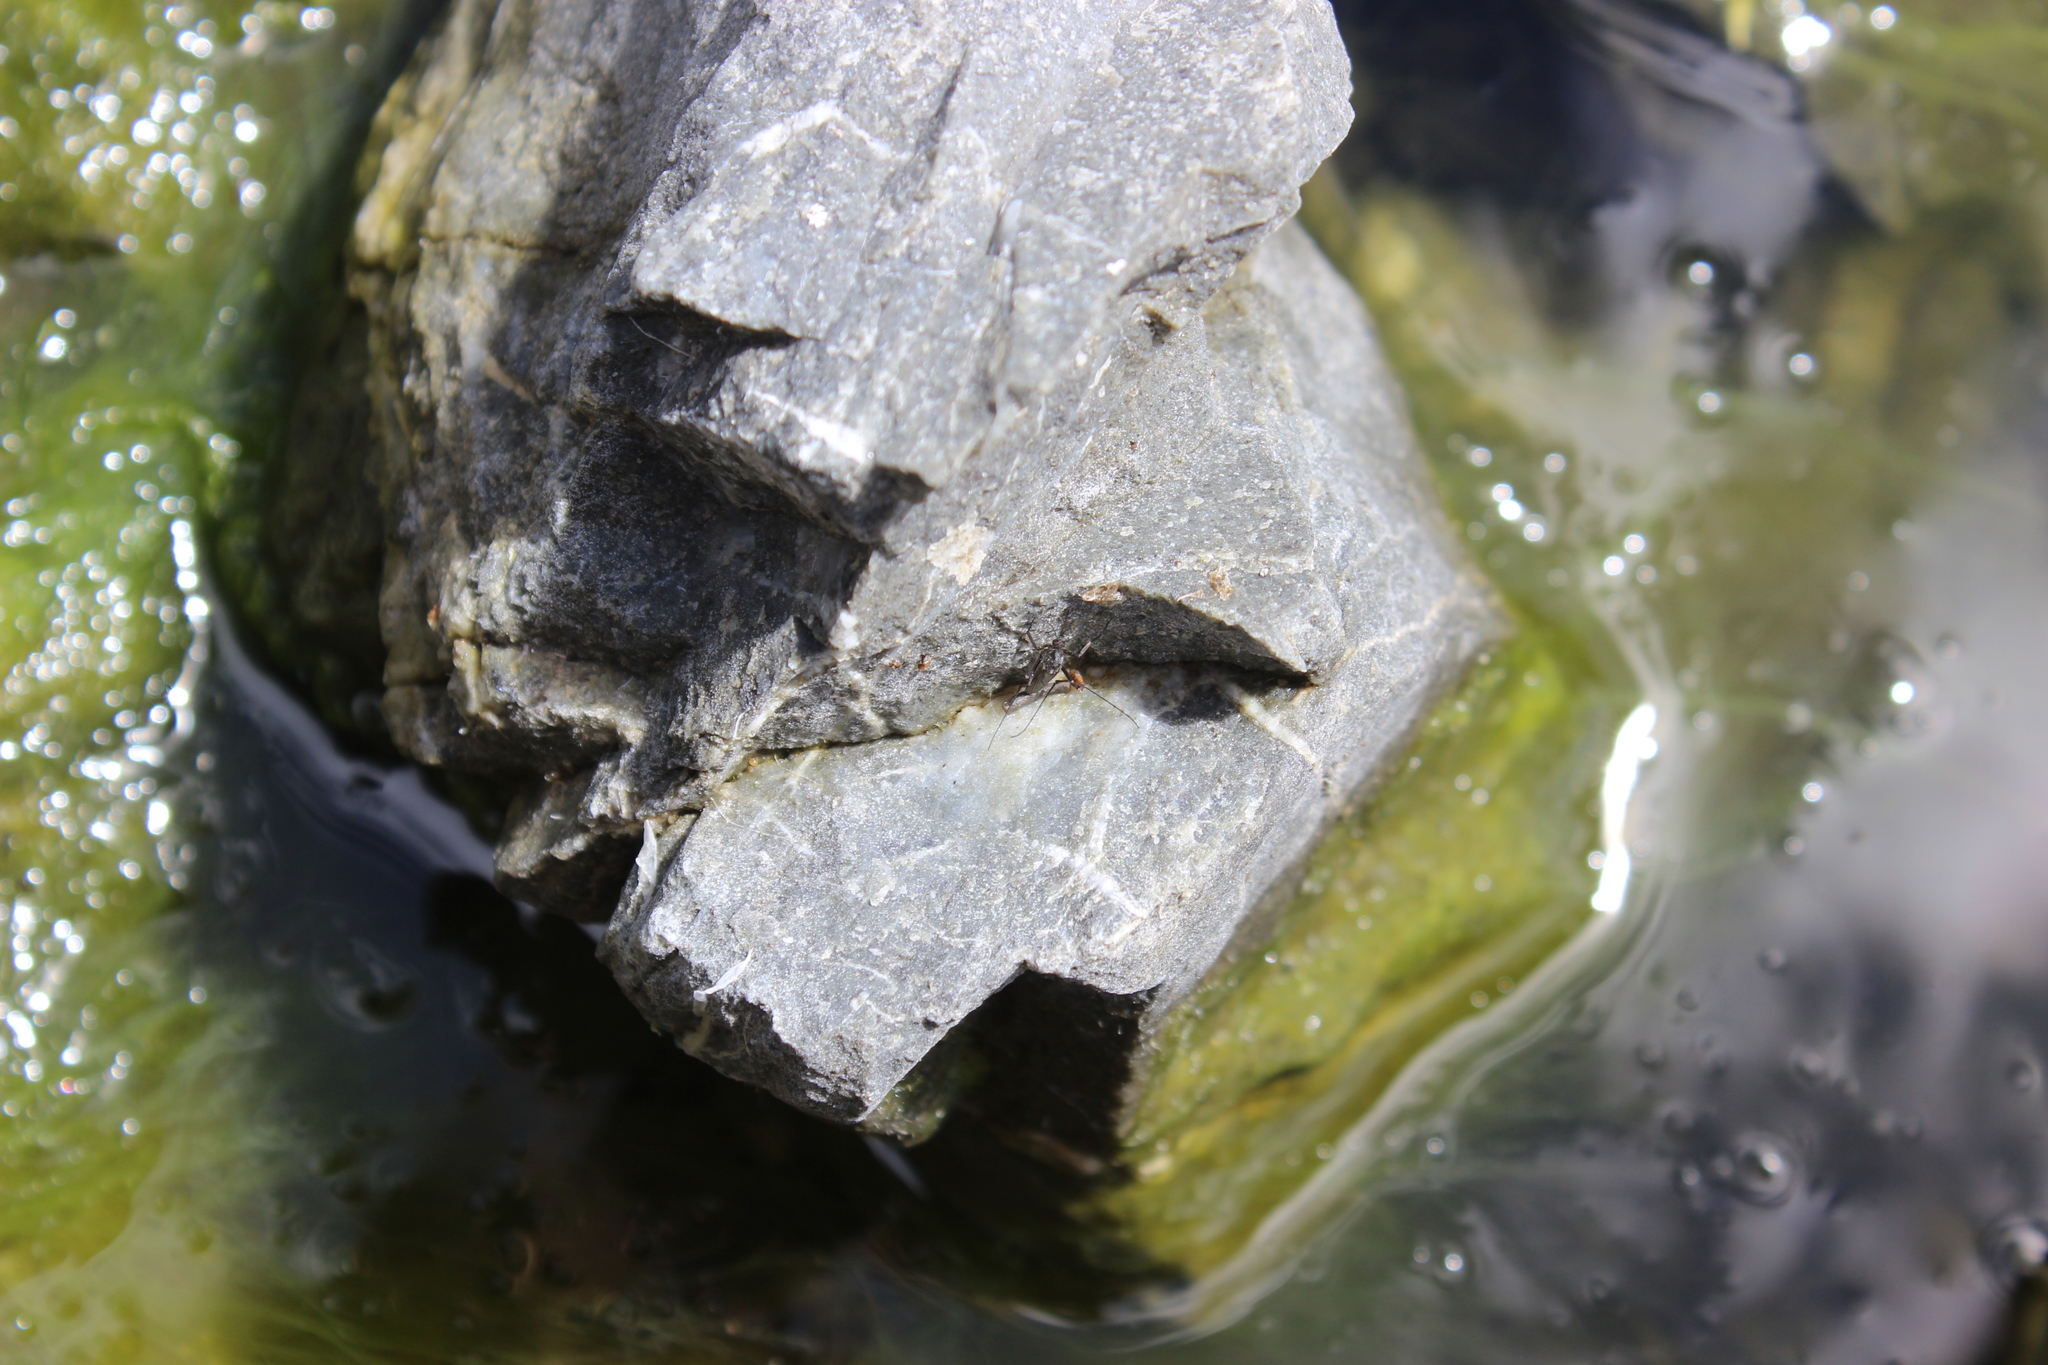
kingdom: Animalia
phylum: Arthropoda
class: Insecta
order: Diptera
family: Culicidae
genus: Opifex
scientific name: Opifex fuscus
